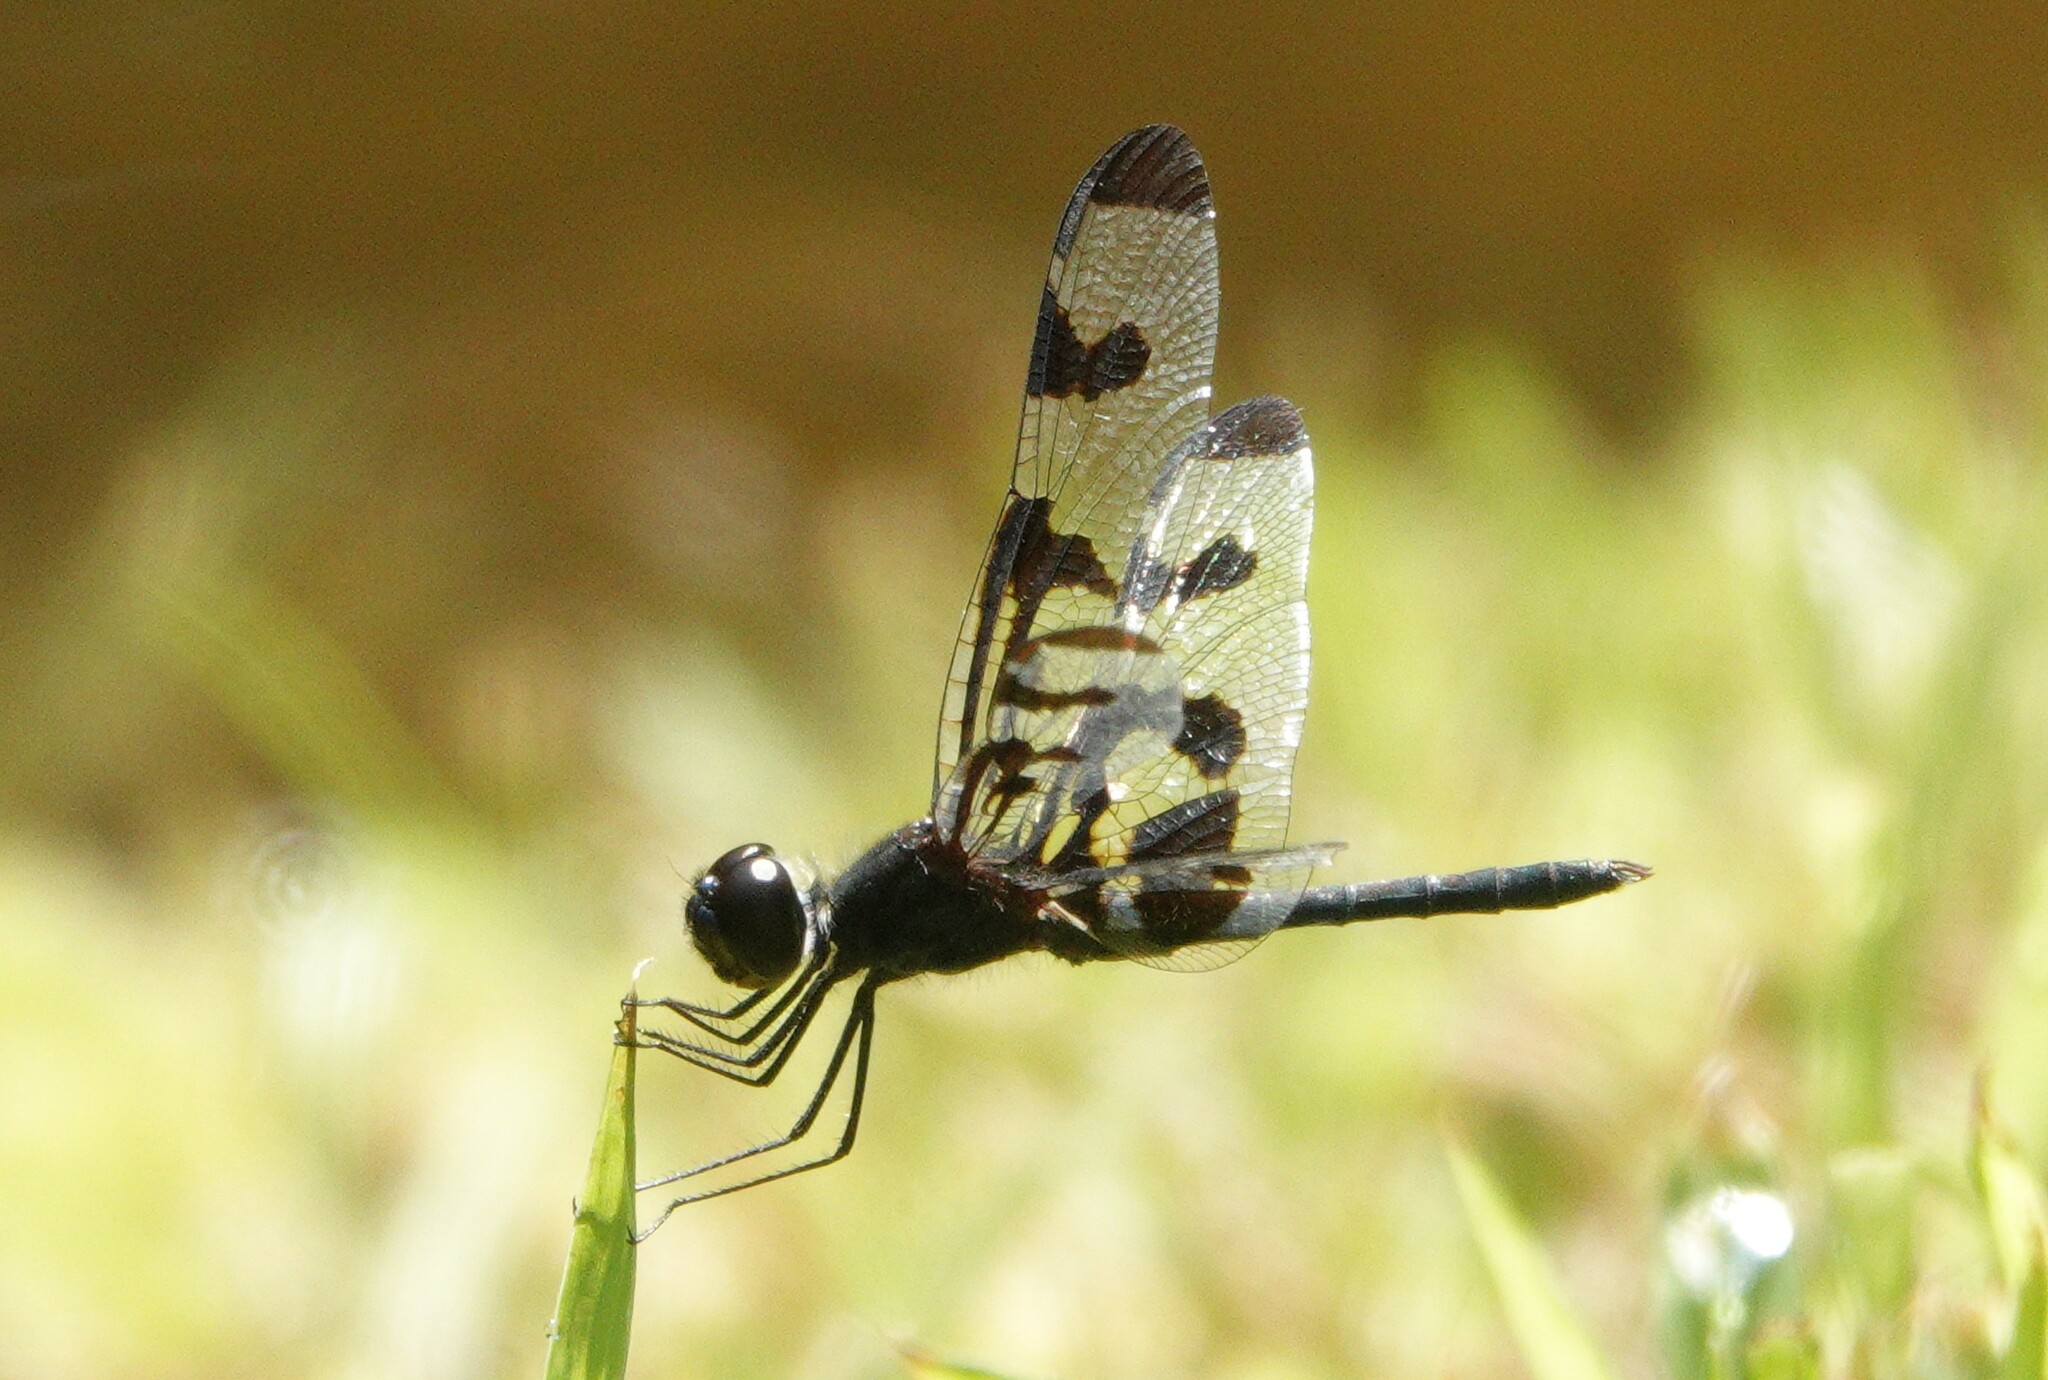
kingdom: Animalia
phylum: Arthropoda
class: Insecta
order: Odonata
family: Libellulidae
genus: Celithemis
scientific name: Celithemis fasciata
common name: Banded pennant
